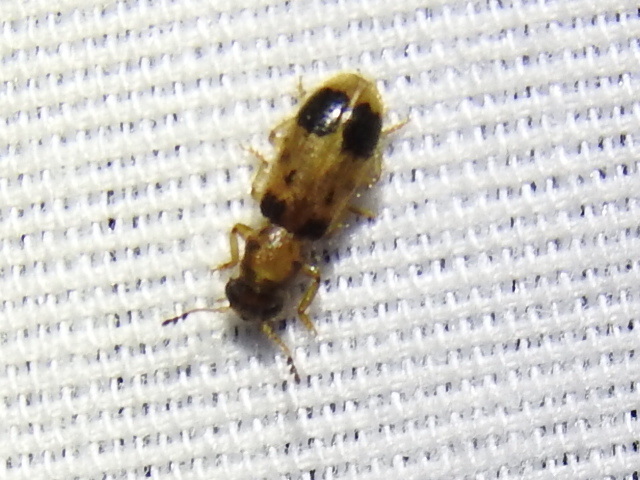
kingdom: Animalia
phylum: Arthropoda
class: Insecta
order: Coleoptera
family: Cleridae
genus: Cregya
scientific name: Cregya america
